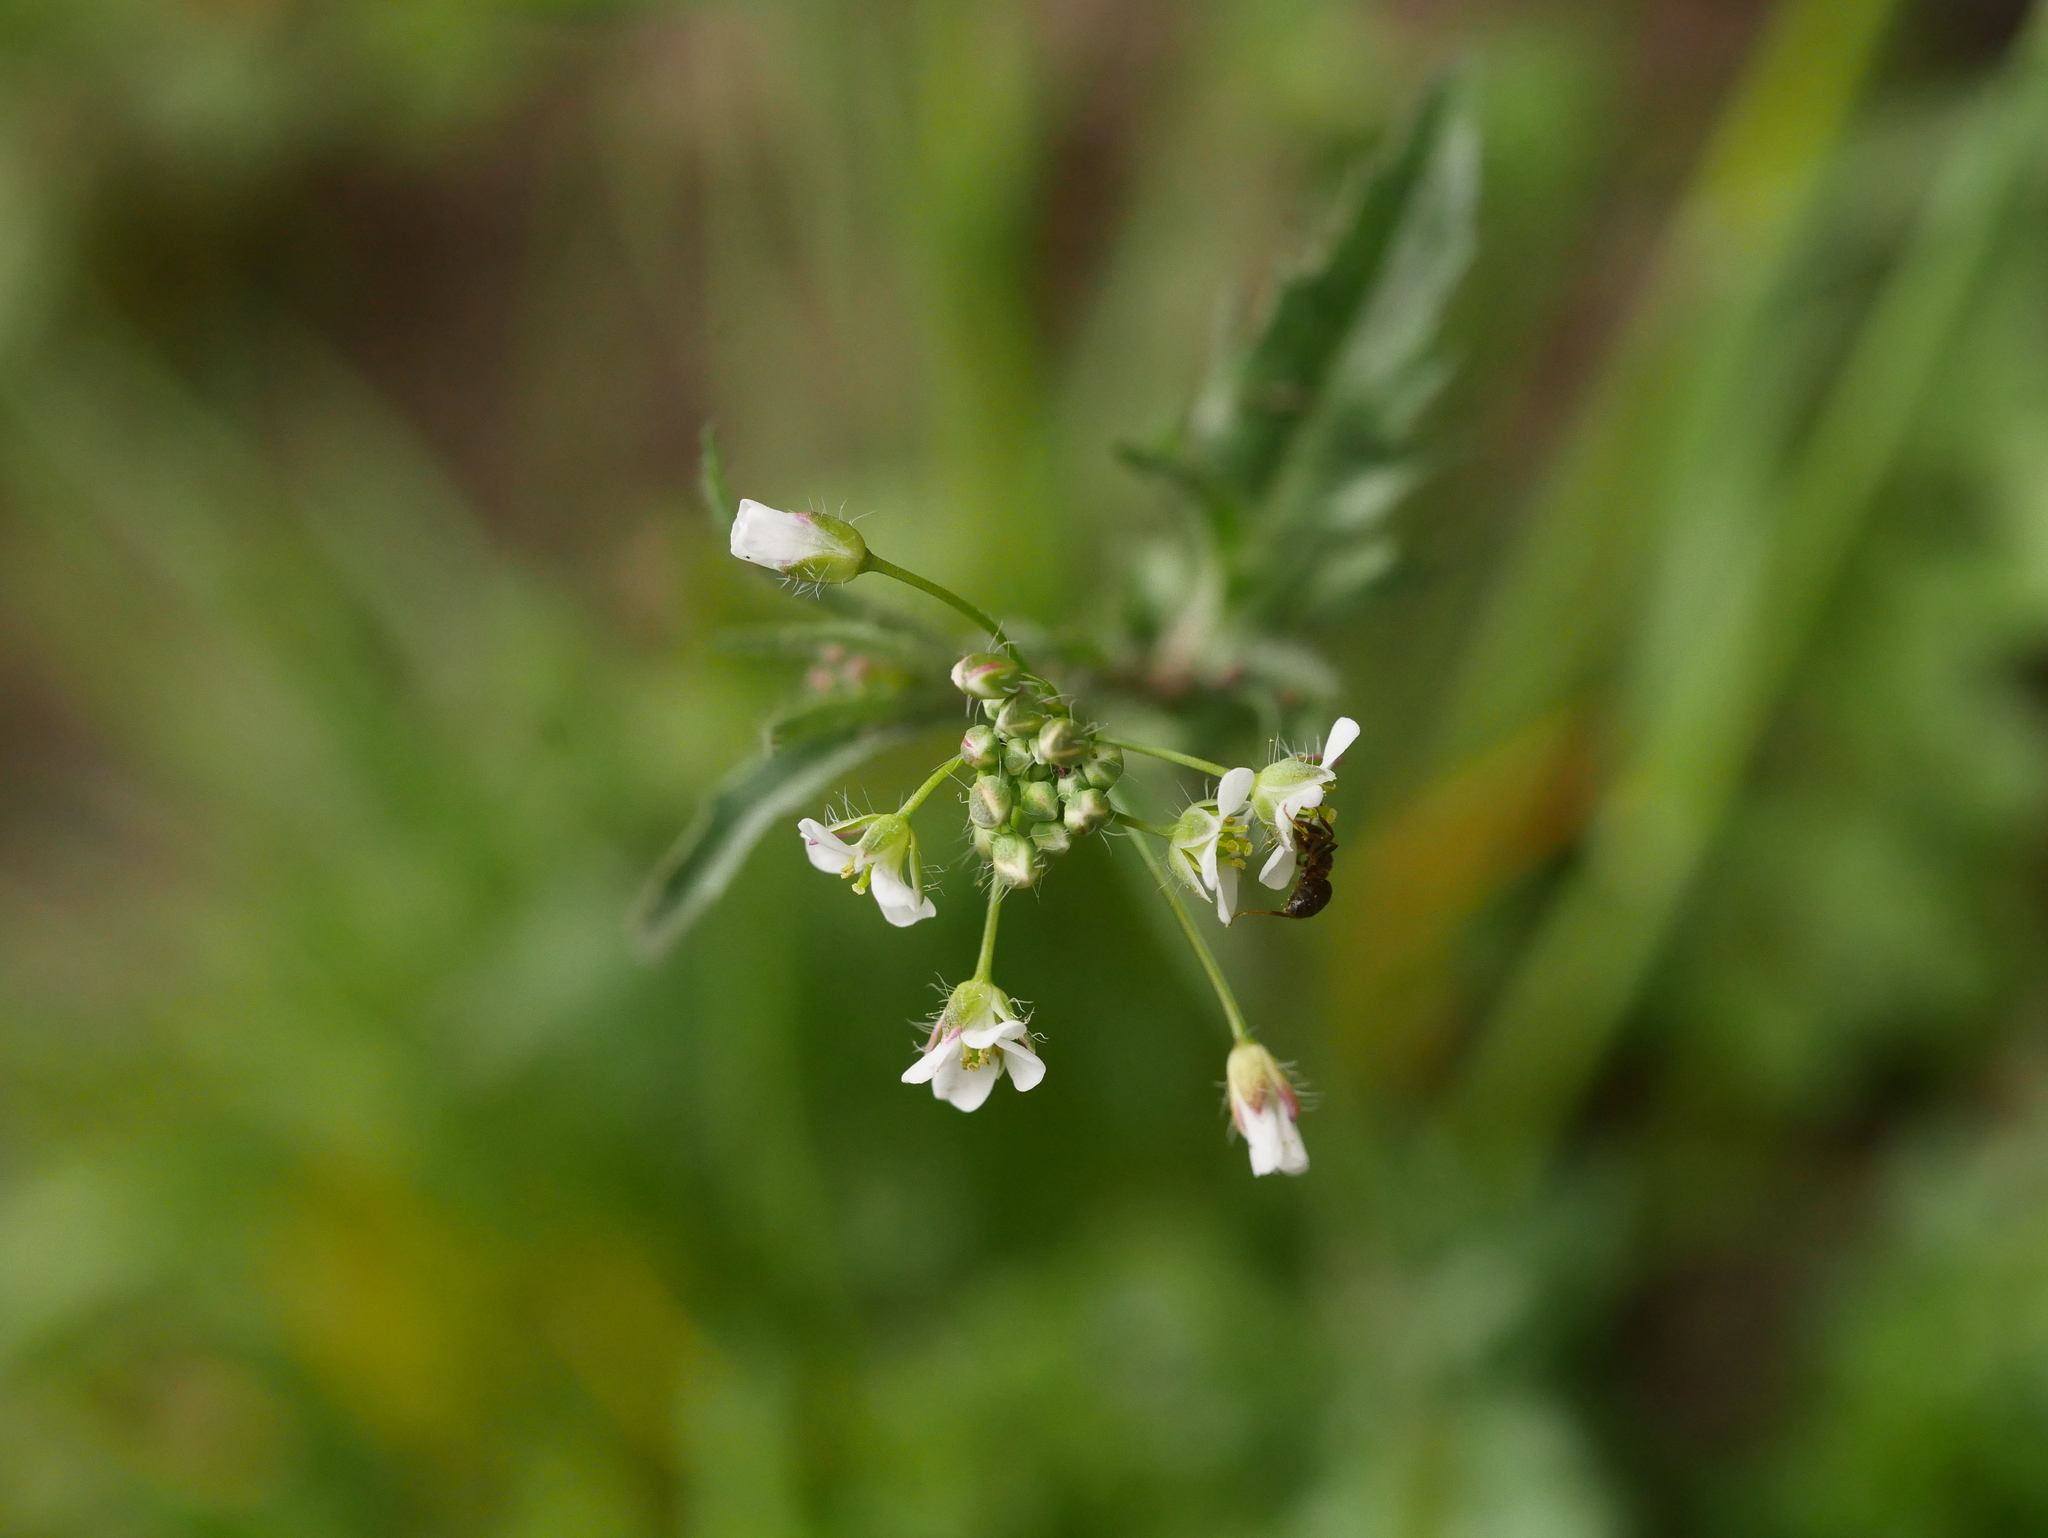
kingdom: Plantae
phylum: Tracheophyta
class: Magnoliopsida
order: Brassicales
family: Brassicaceae
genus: Capsella
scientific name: Capsella bursa-pastoris
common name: Shepherd's purse
